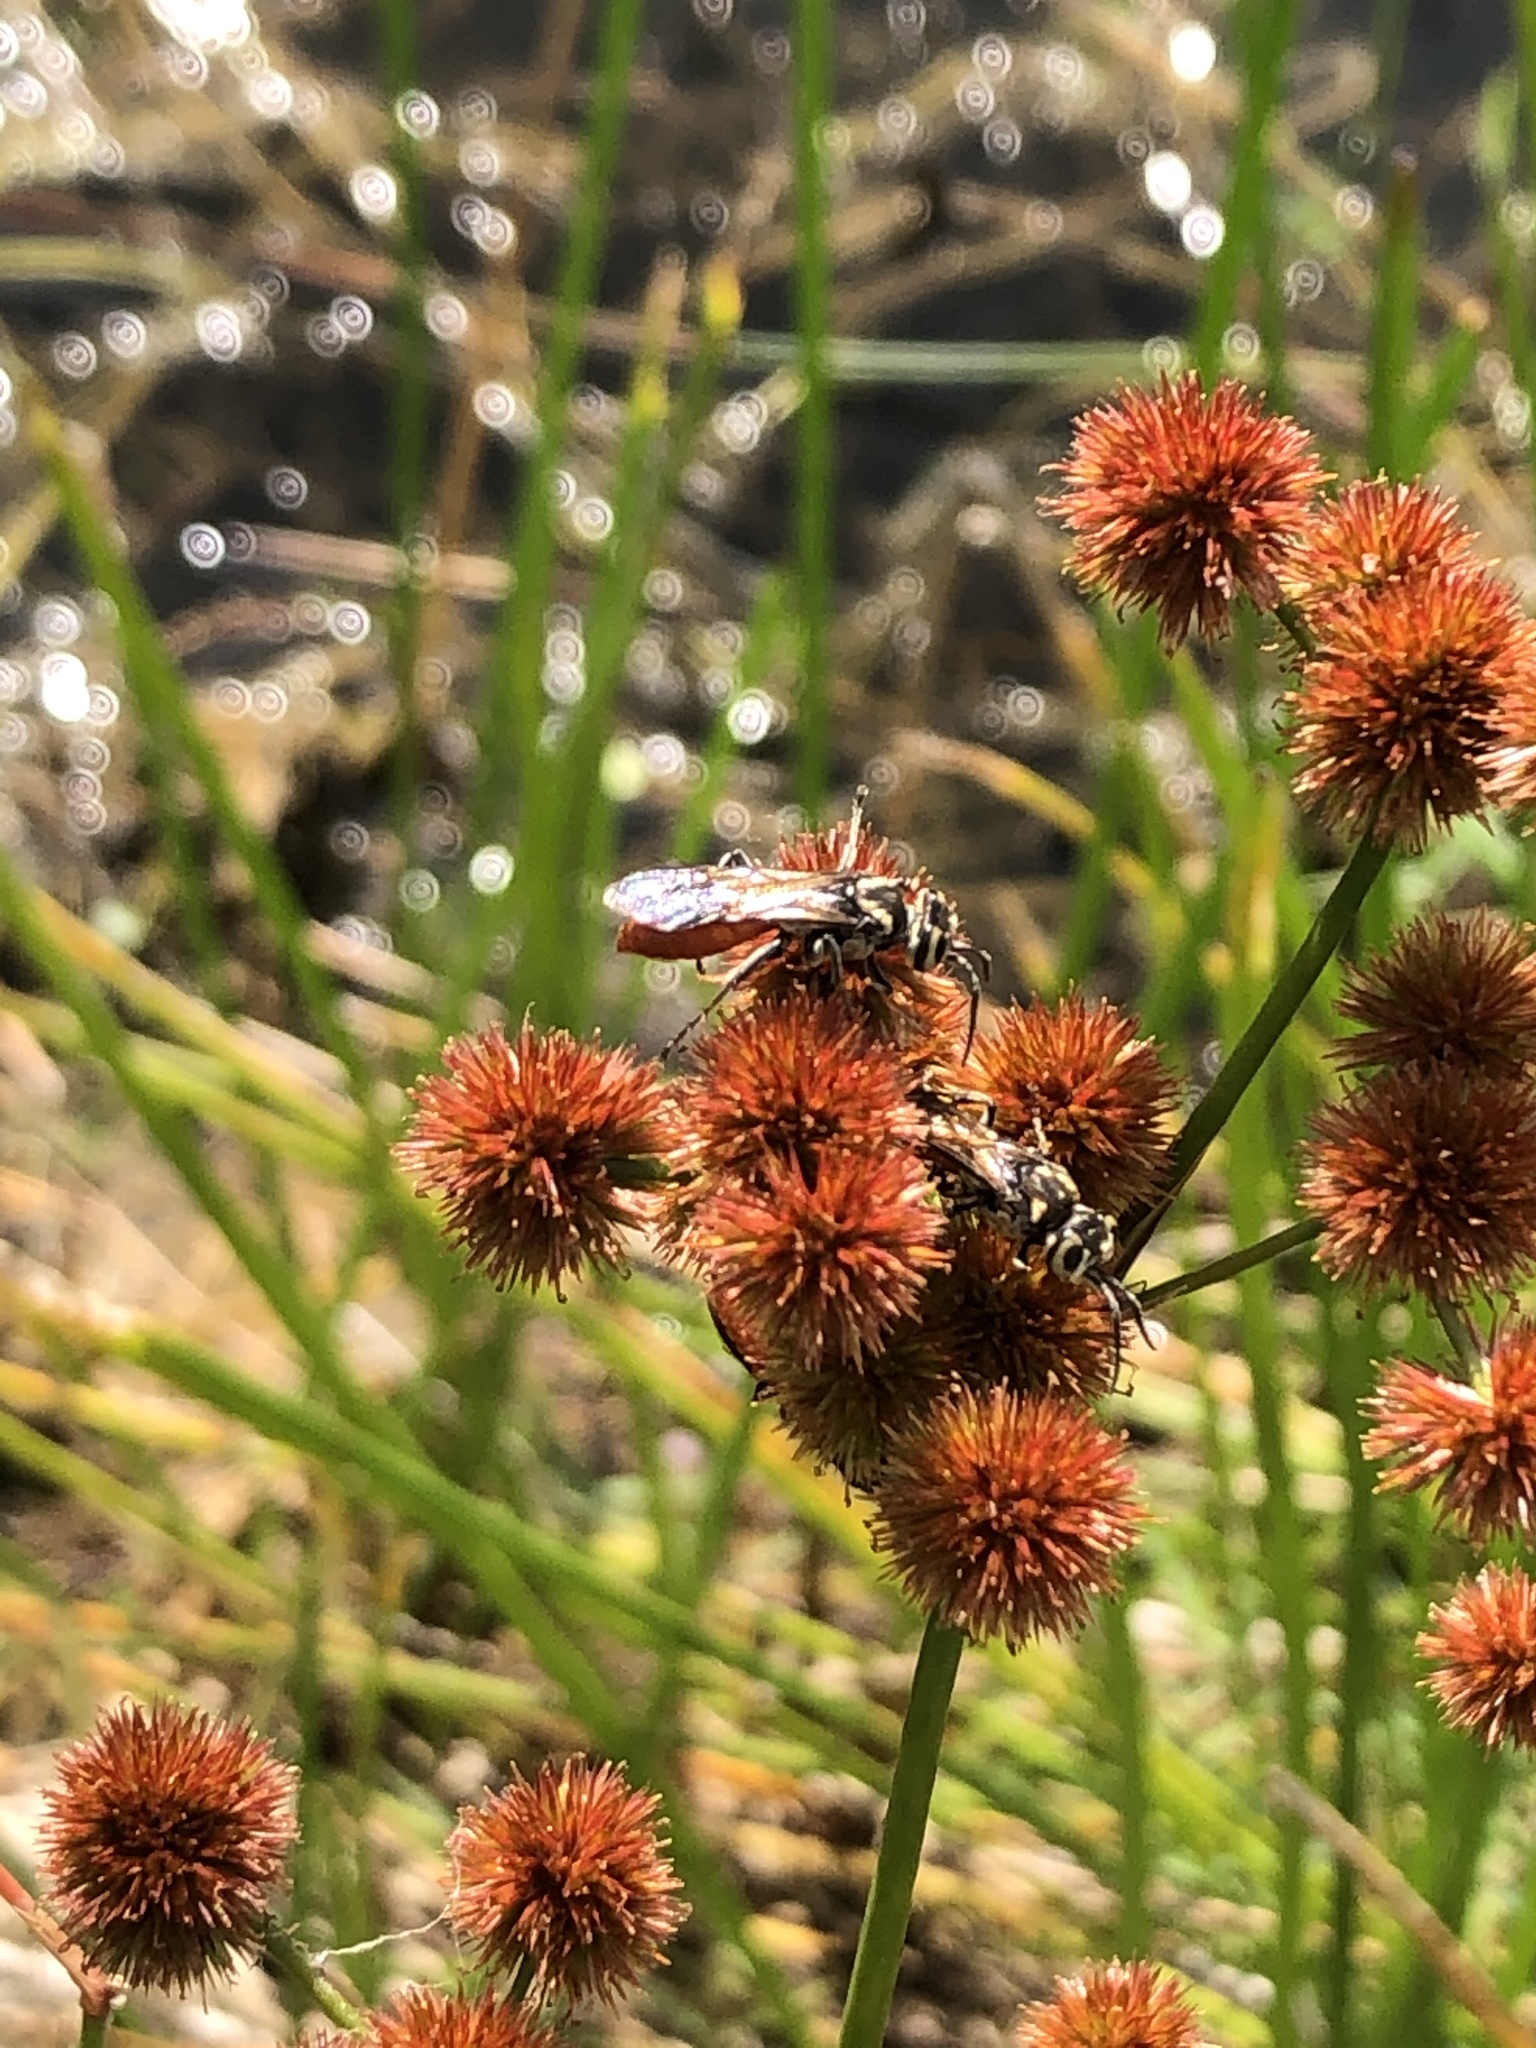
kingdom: Animalia
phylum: Arthropoda
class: Insecta
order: Hymenoptera
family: Crabronidae
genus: Larra
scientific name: Larra bicolor
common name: Wasp
